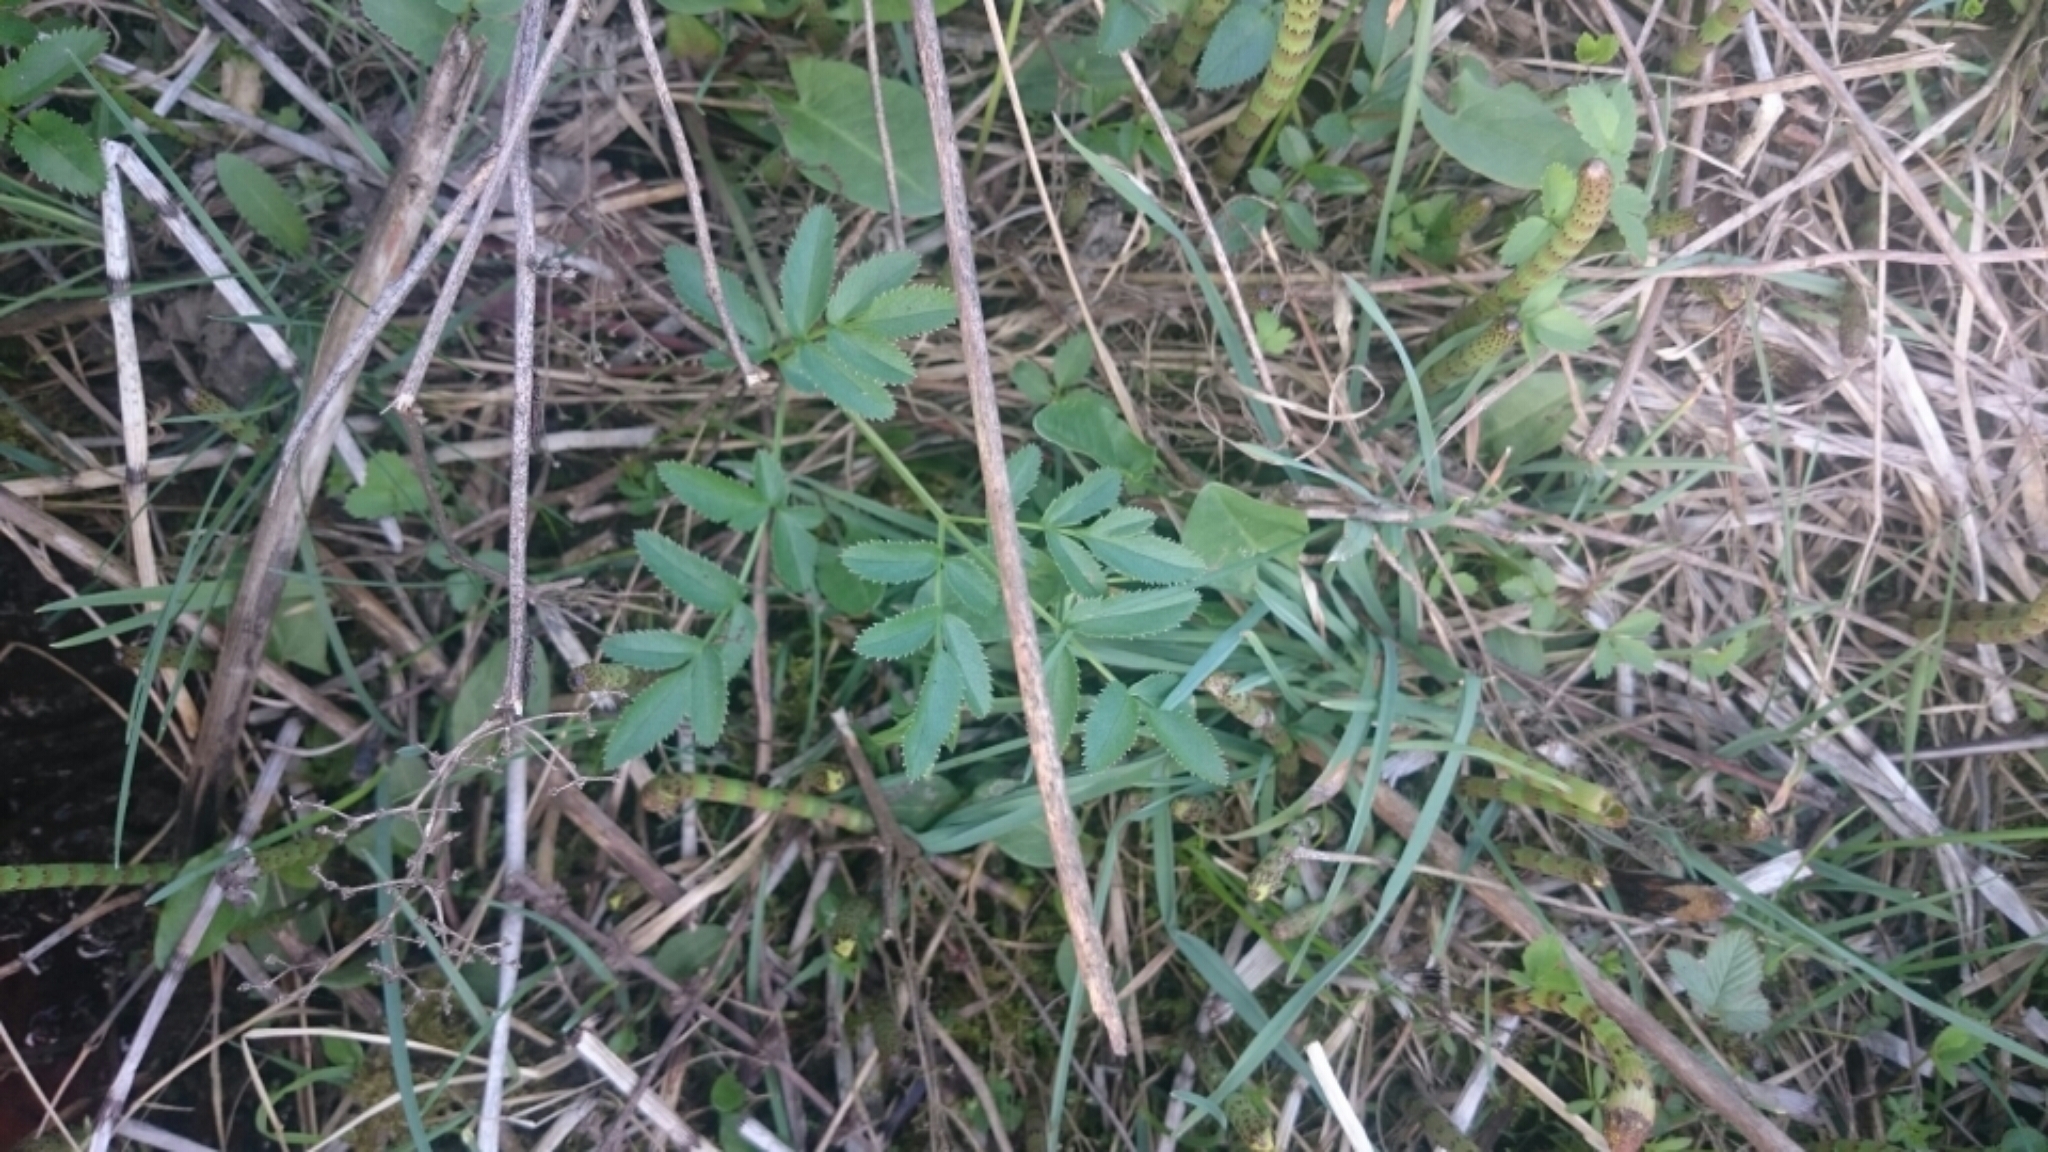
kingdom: Plantae
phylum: Tracheophyta
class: Magnoliopsida
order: Apiales
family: Apiaceae
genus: Angelica
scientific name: Angelica sylvestris
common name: Wild angelica
